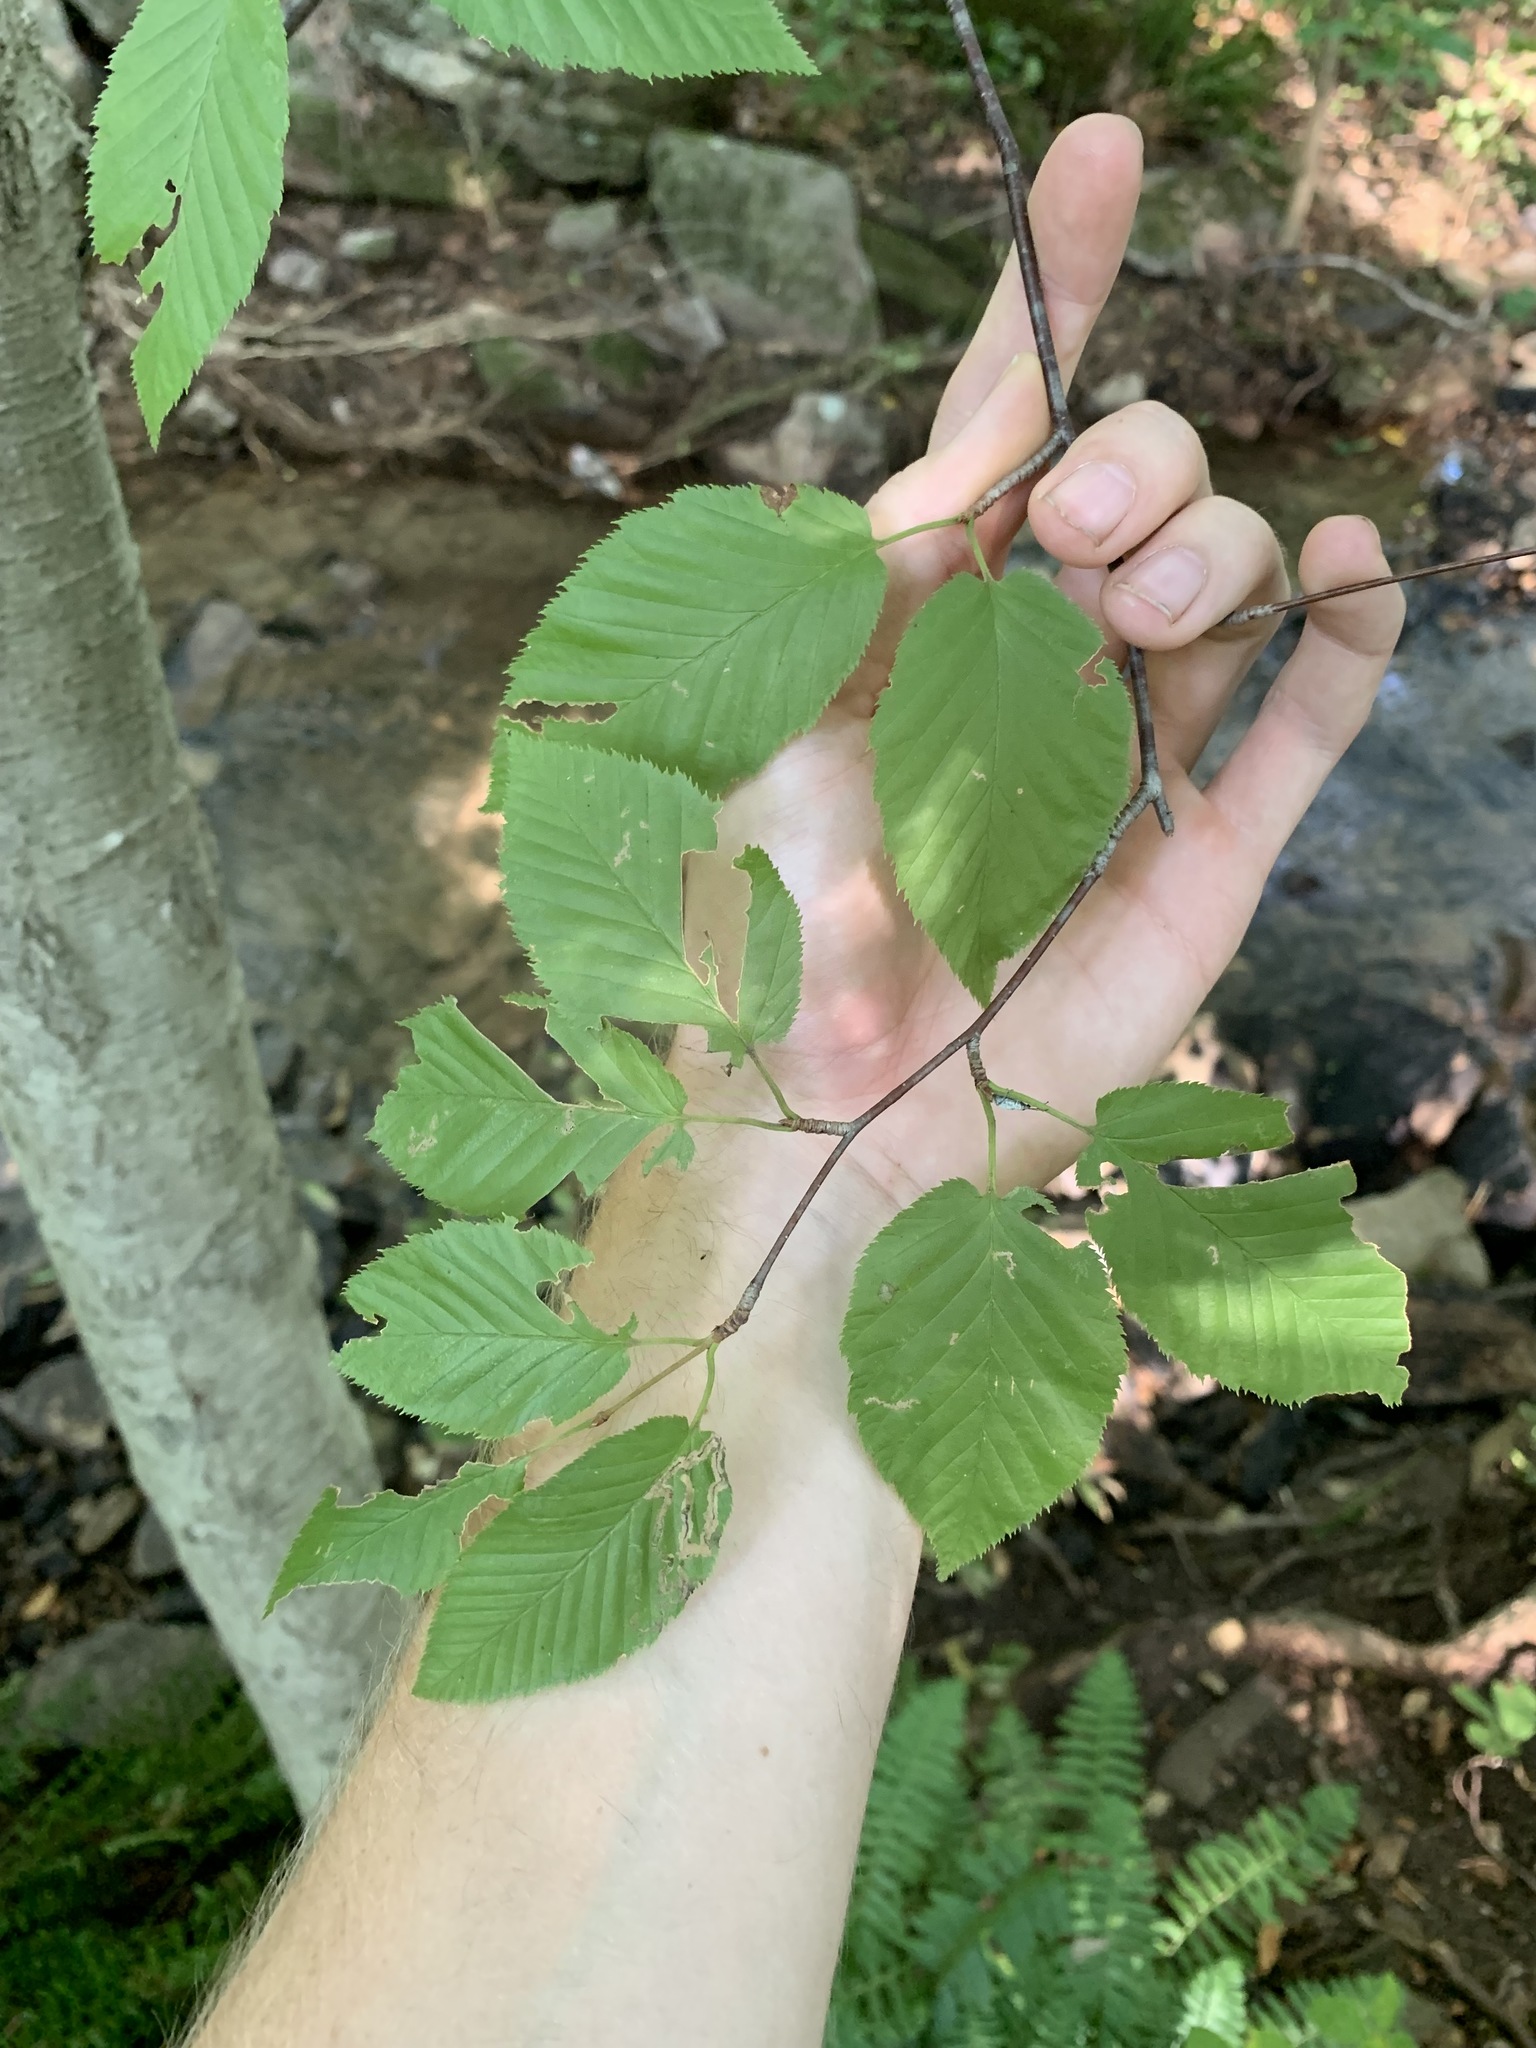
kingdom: Plantae
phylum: Tracheophyta
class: Magnoliopsida
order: Fagales
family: Betulaceae
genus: Betula
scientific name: Betula lenta
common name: Black birch
